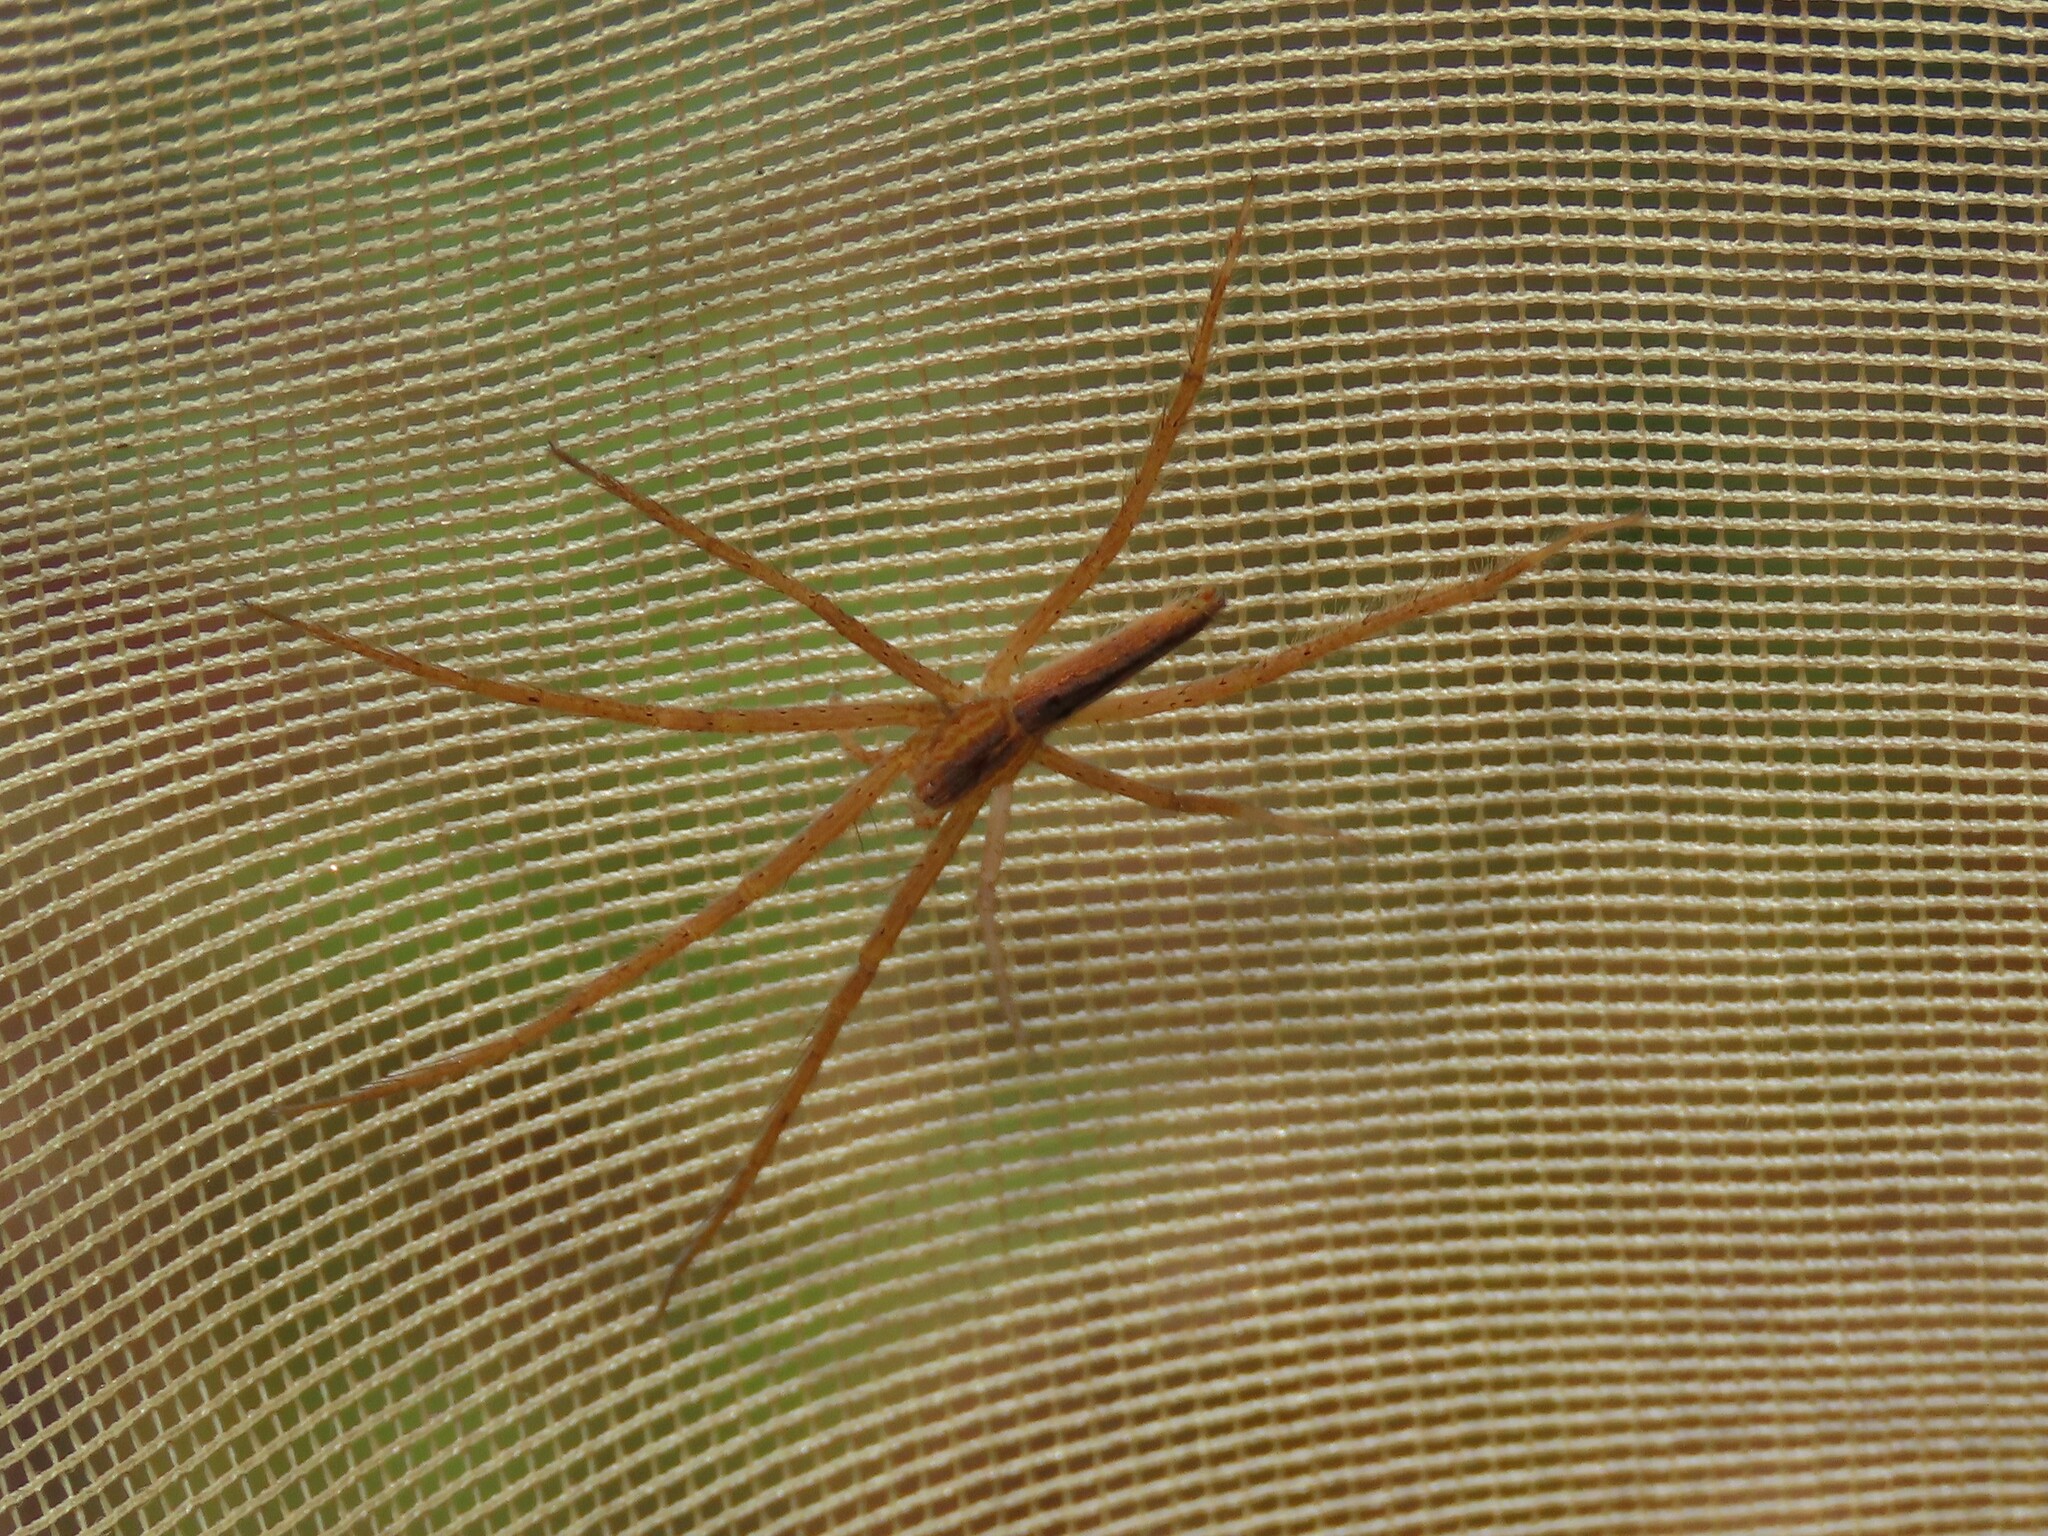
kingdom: Animalia
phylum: Arthropoda
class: Arachnida
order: Araneae
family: Pisauridae
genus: Pisaurina
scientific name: Pisaurina undulata
